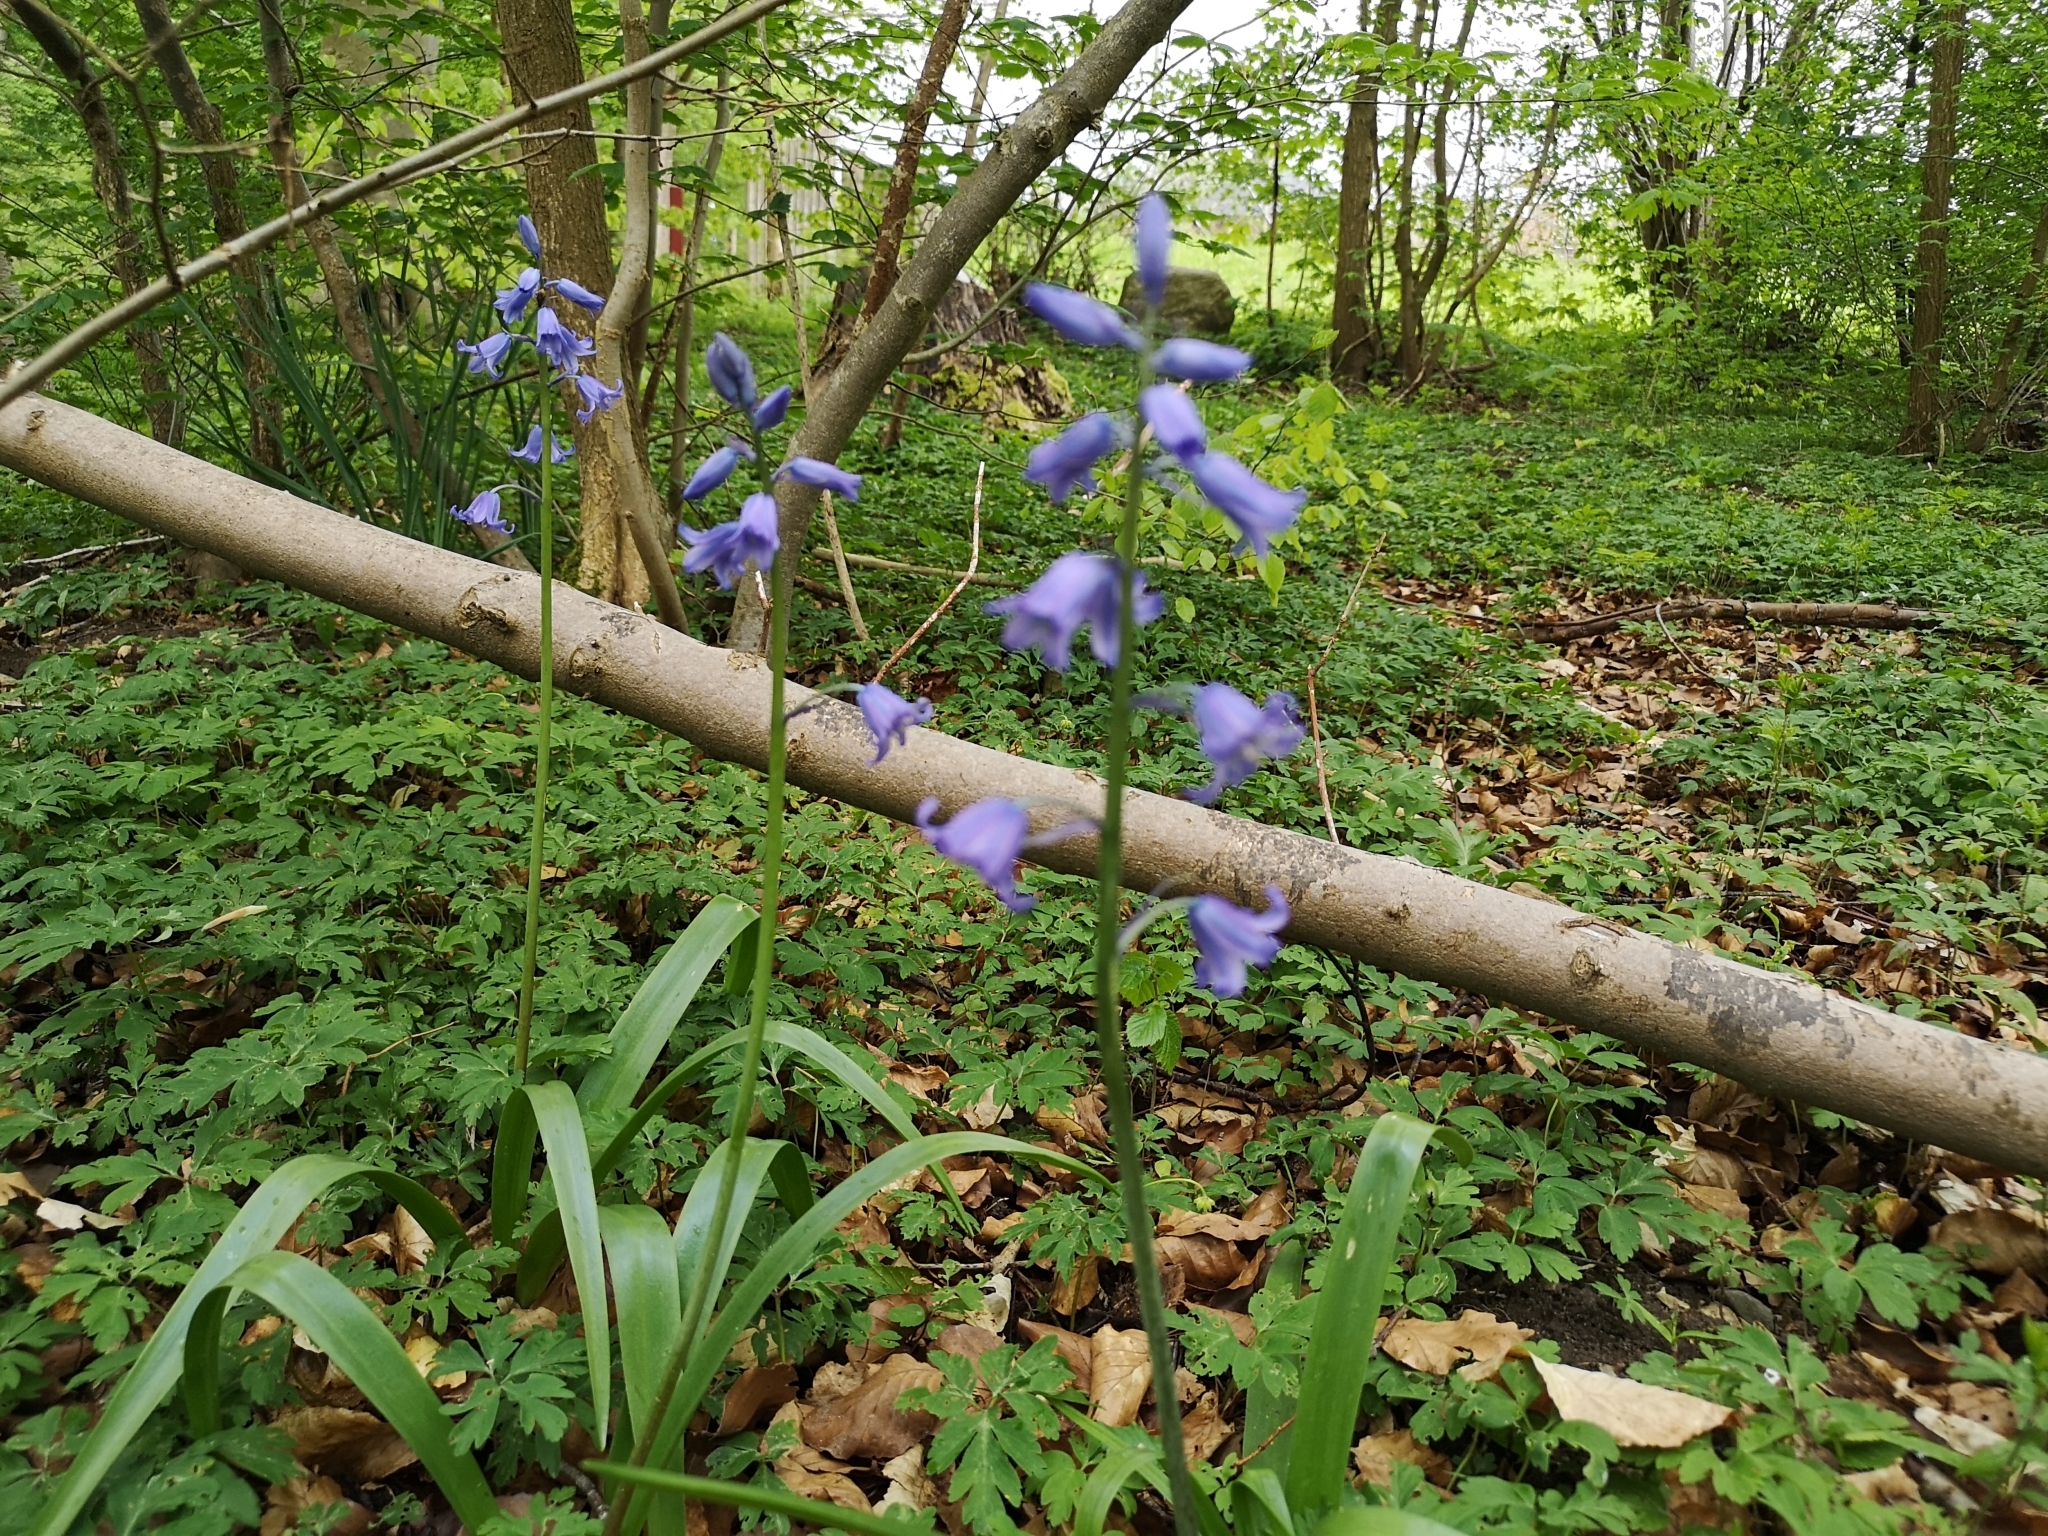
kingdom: Plantae
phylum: Tracheophyta
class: Liliopsida
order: Asparagales
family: Asparagaceae
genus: Hyacinthoides
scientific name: Hyacinthoides hispanica
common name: Spanish bluebell
